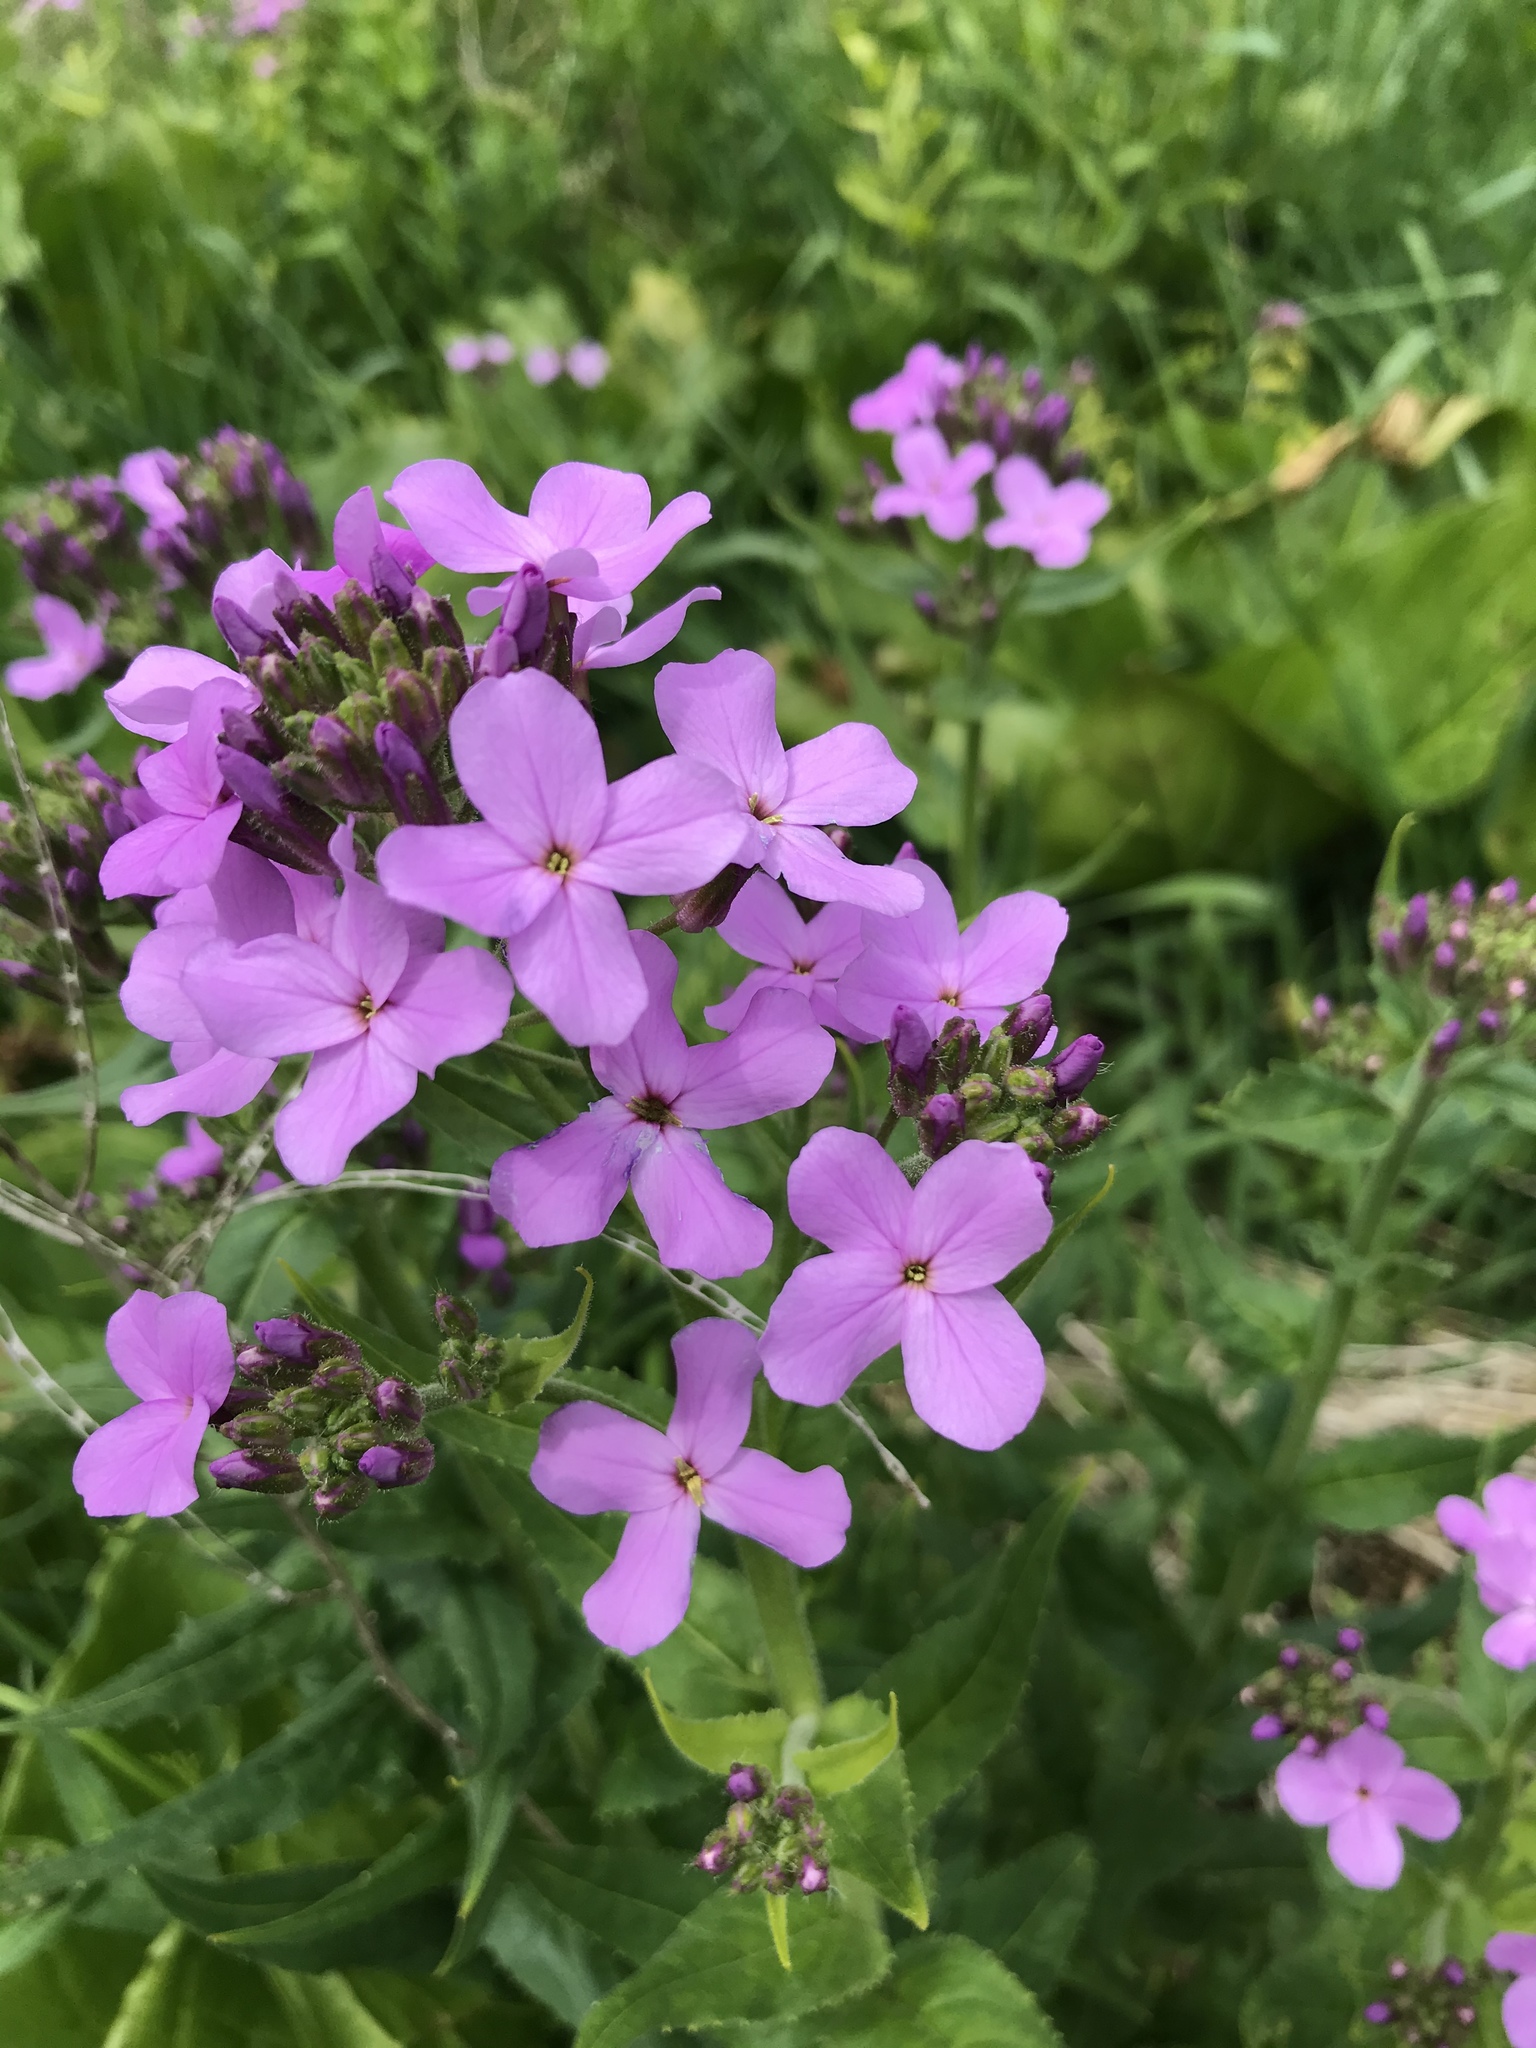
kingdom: Plantae
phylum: Tracheophyta
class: Magnoliopsida
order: Brassicales
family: Brassicaceae
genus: Hesperis
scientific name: Hesperis matronalis
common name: Dame's-violet
